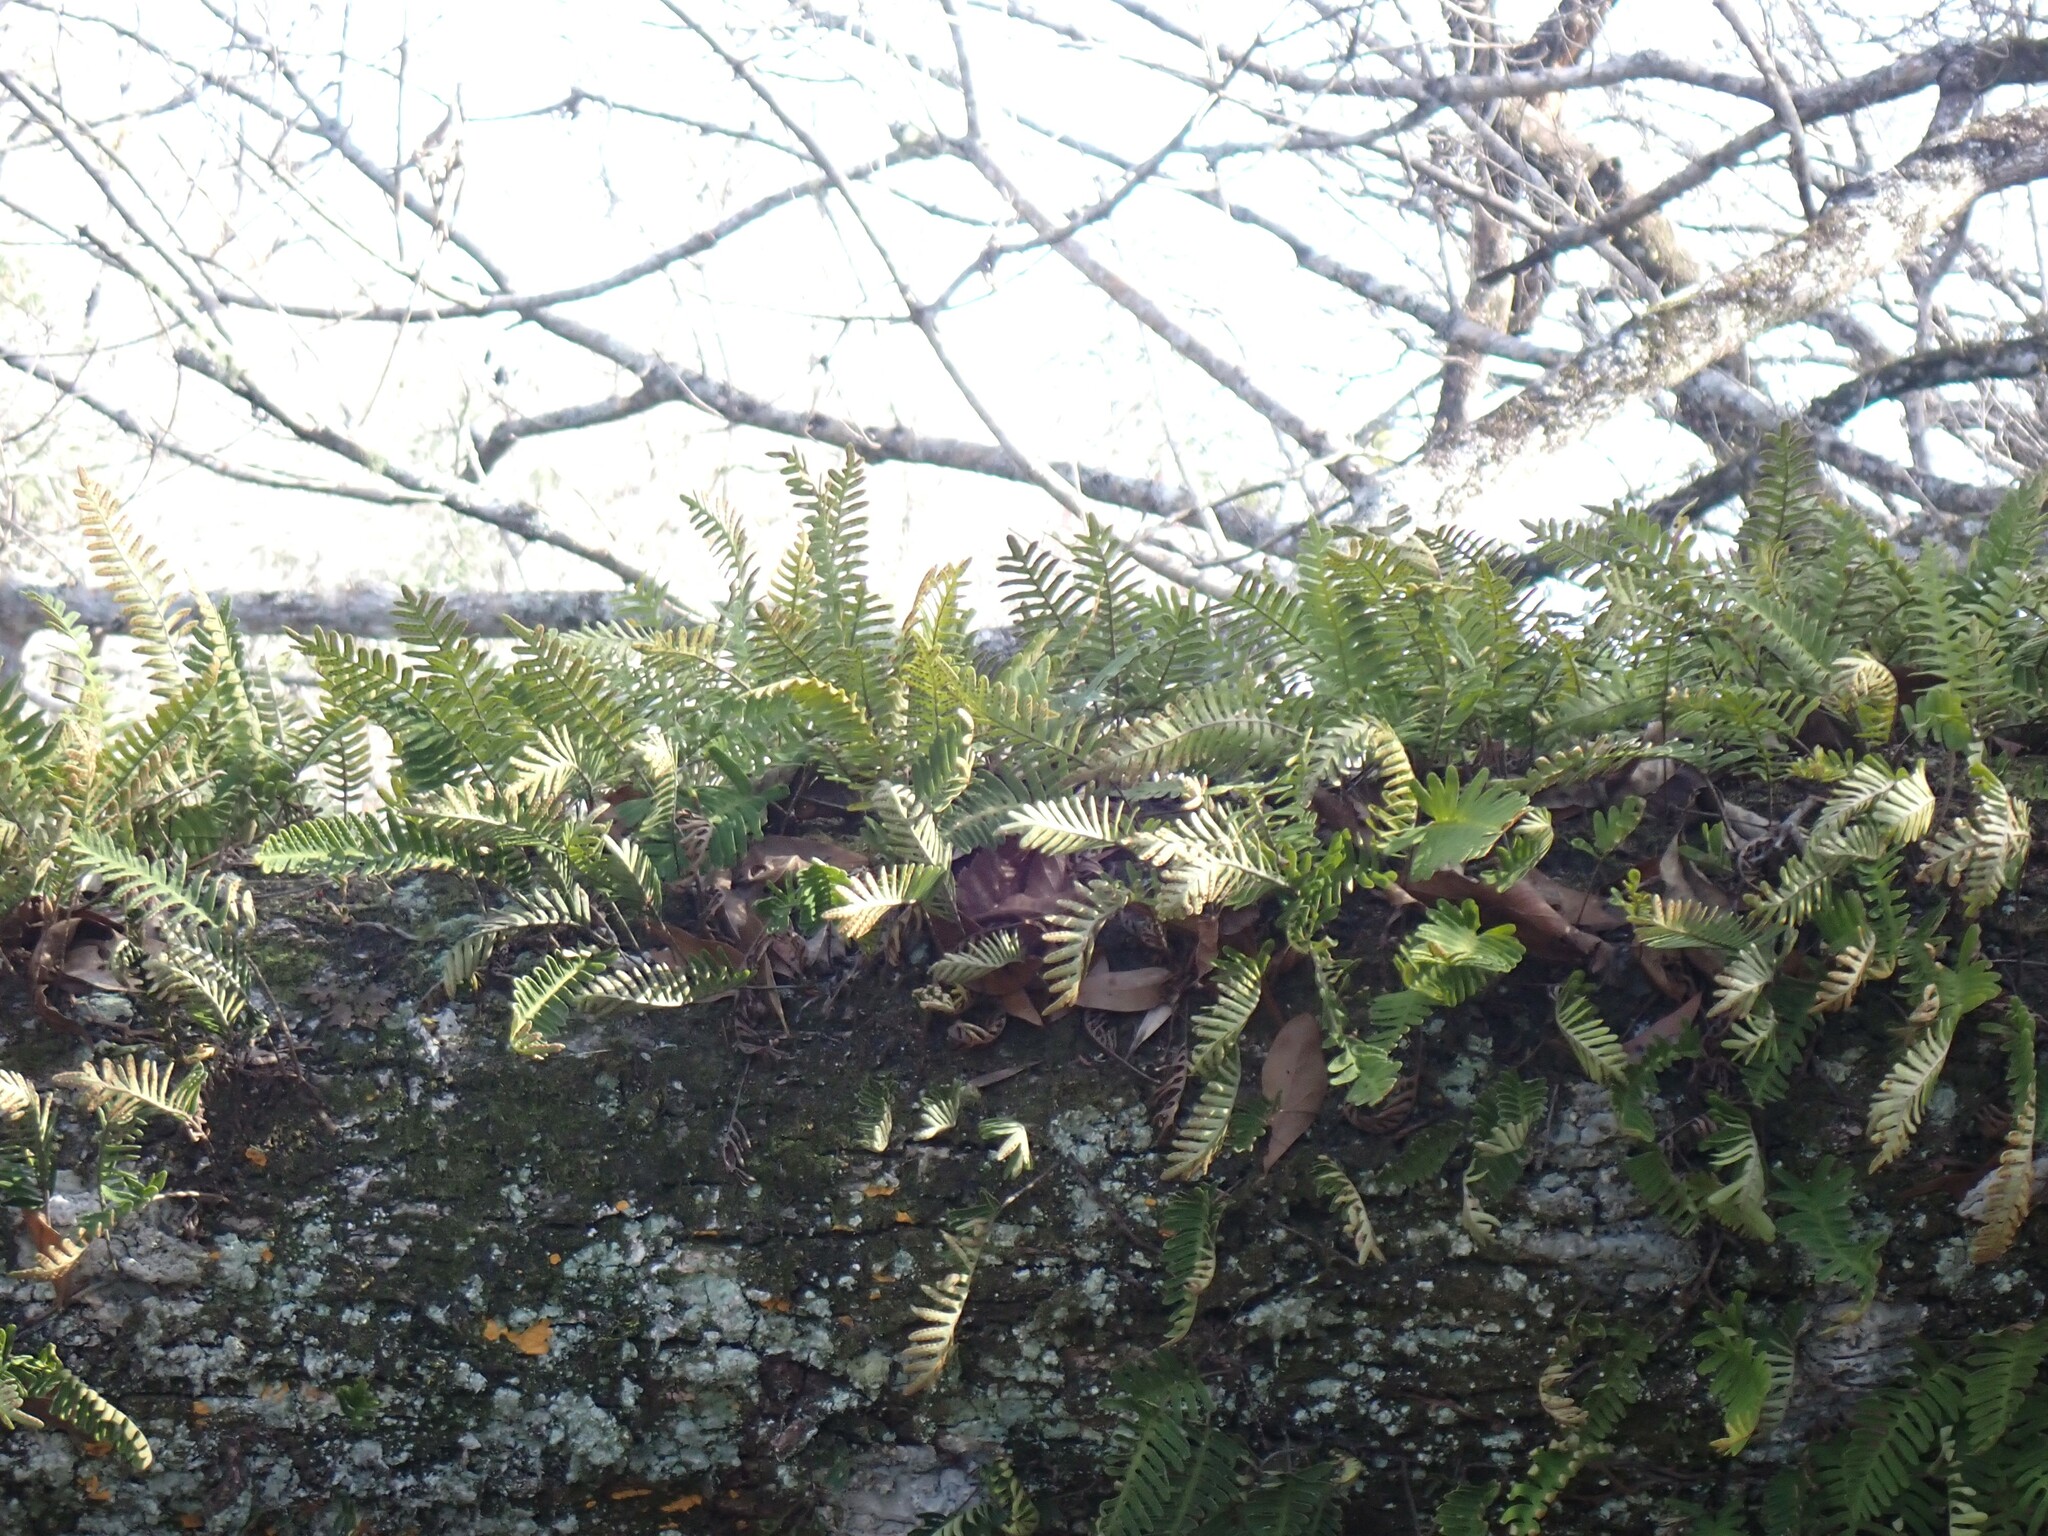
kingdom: Plantae
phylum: Tracheophyta
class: Polypodiopsida
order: Polypodiales
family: Polypodiaceae
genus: Pleopeltis
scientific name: Pleopeltis michauxiana
